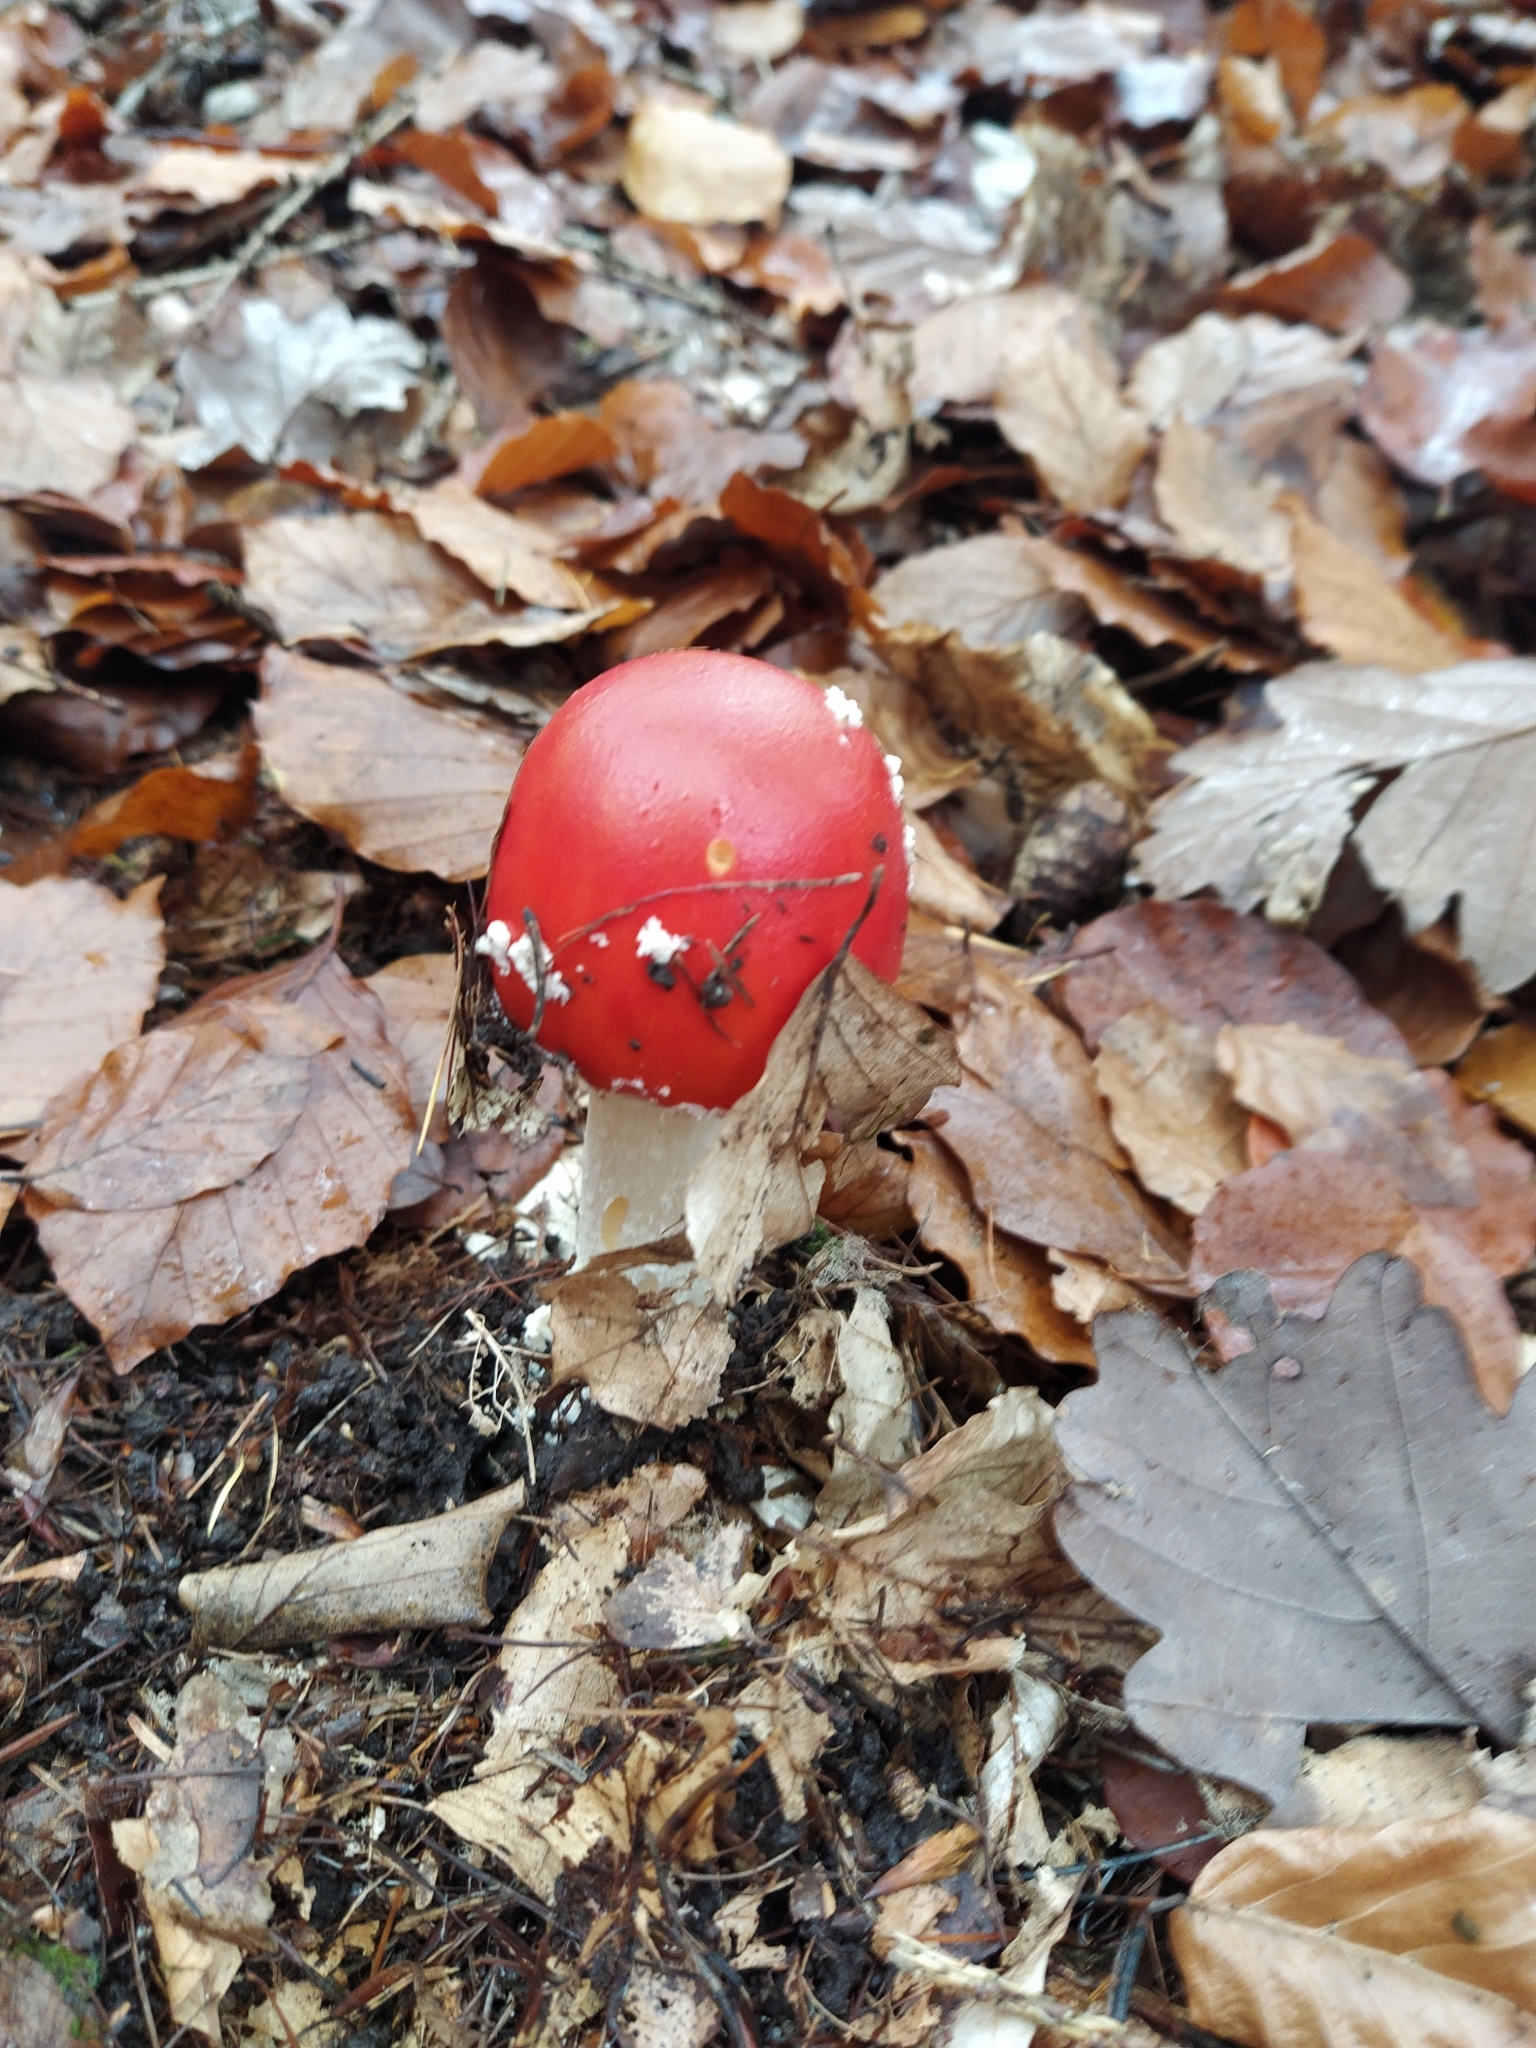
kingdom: Fungi
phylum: Basidiomycota
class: Agaricomycetes
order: Agaricales
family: Amanitaceae
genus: Amanita
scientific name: Amanita muscaria
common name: Fly agaric
